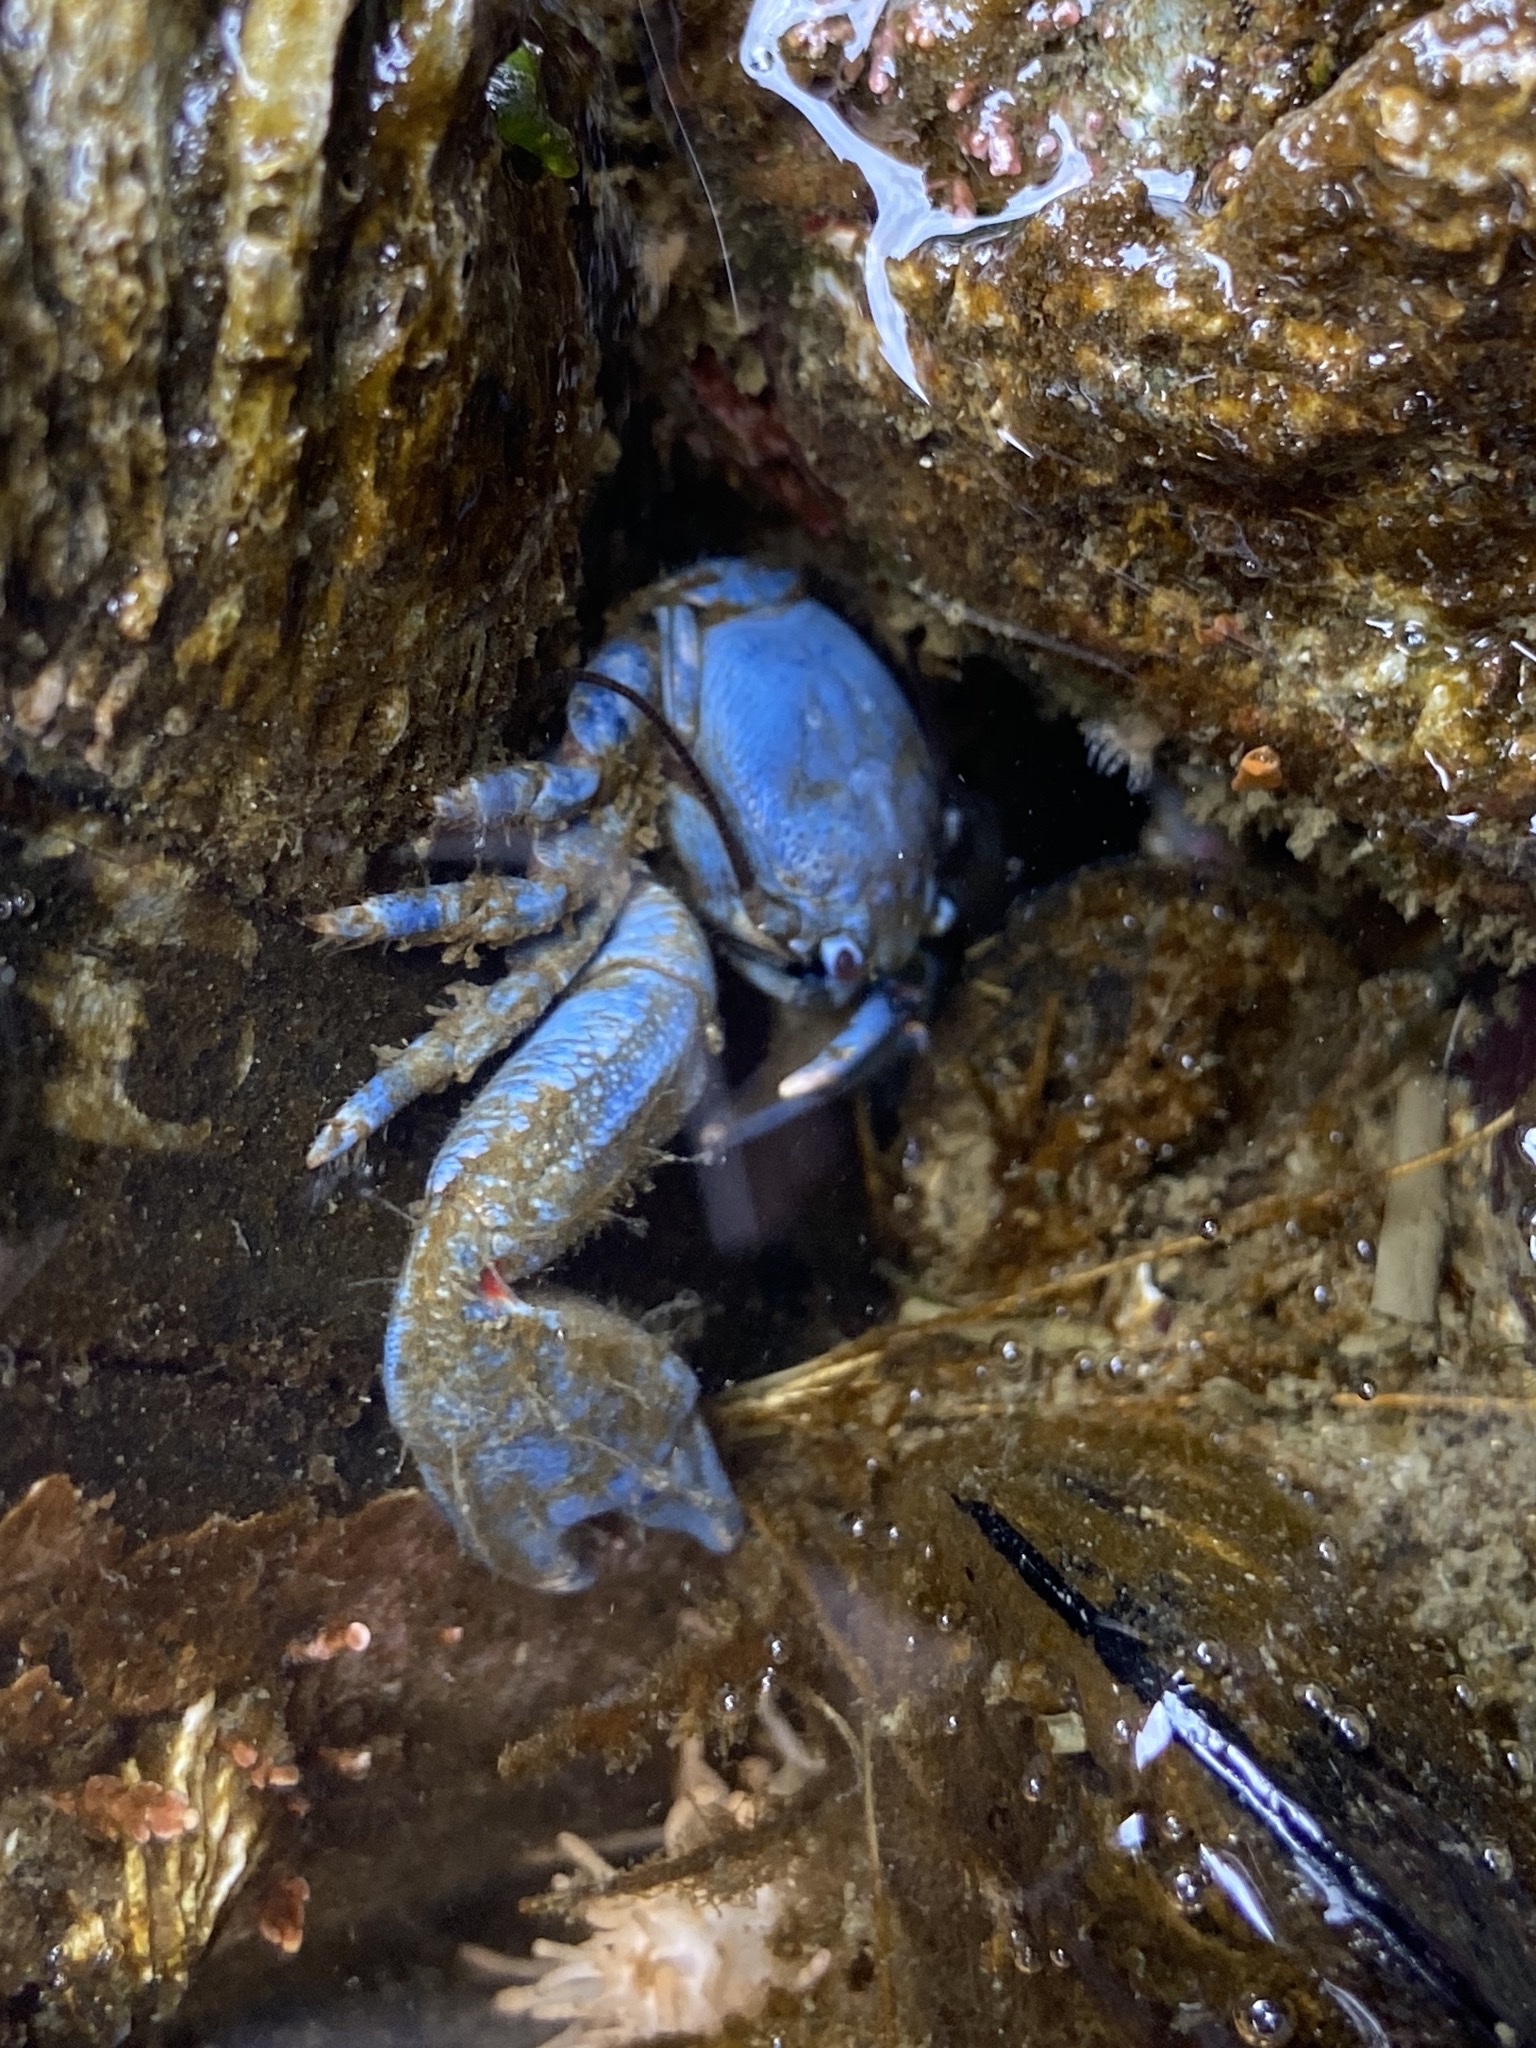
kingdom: Animalia
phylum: Arthropoda
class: Malacostraca
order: Decapoda
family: Porcellanidae
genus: Petrolisthes
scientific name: Petrolisthes eriomerus
